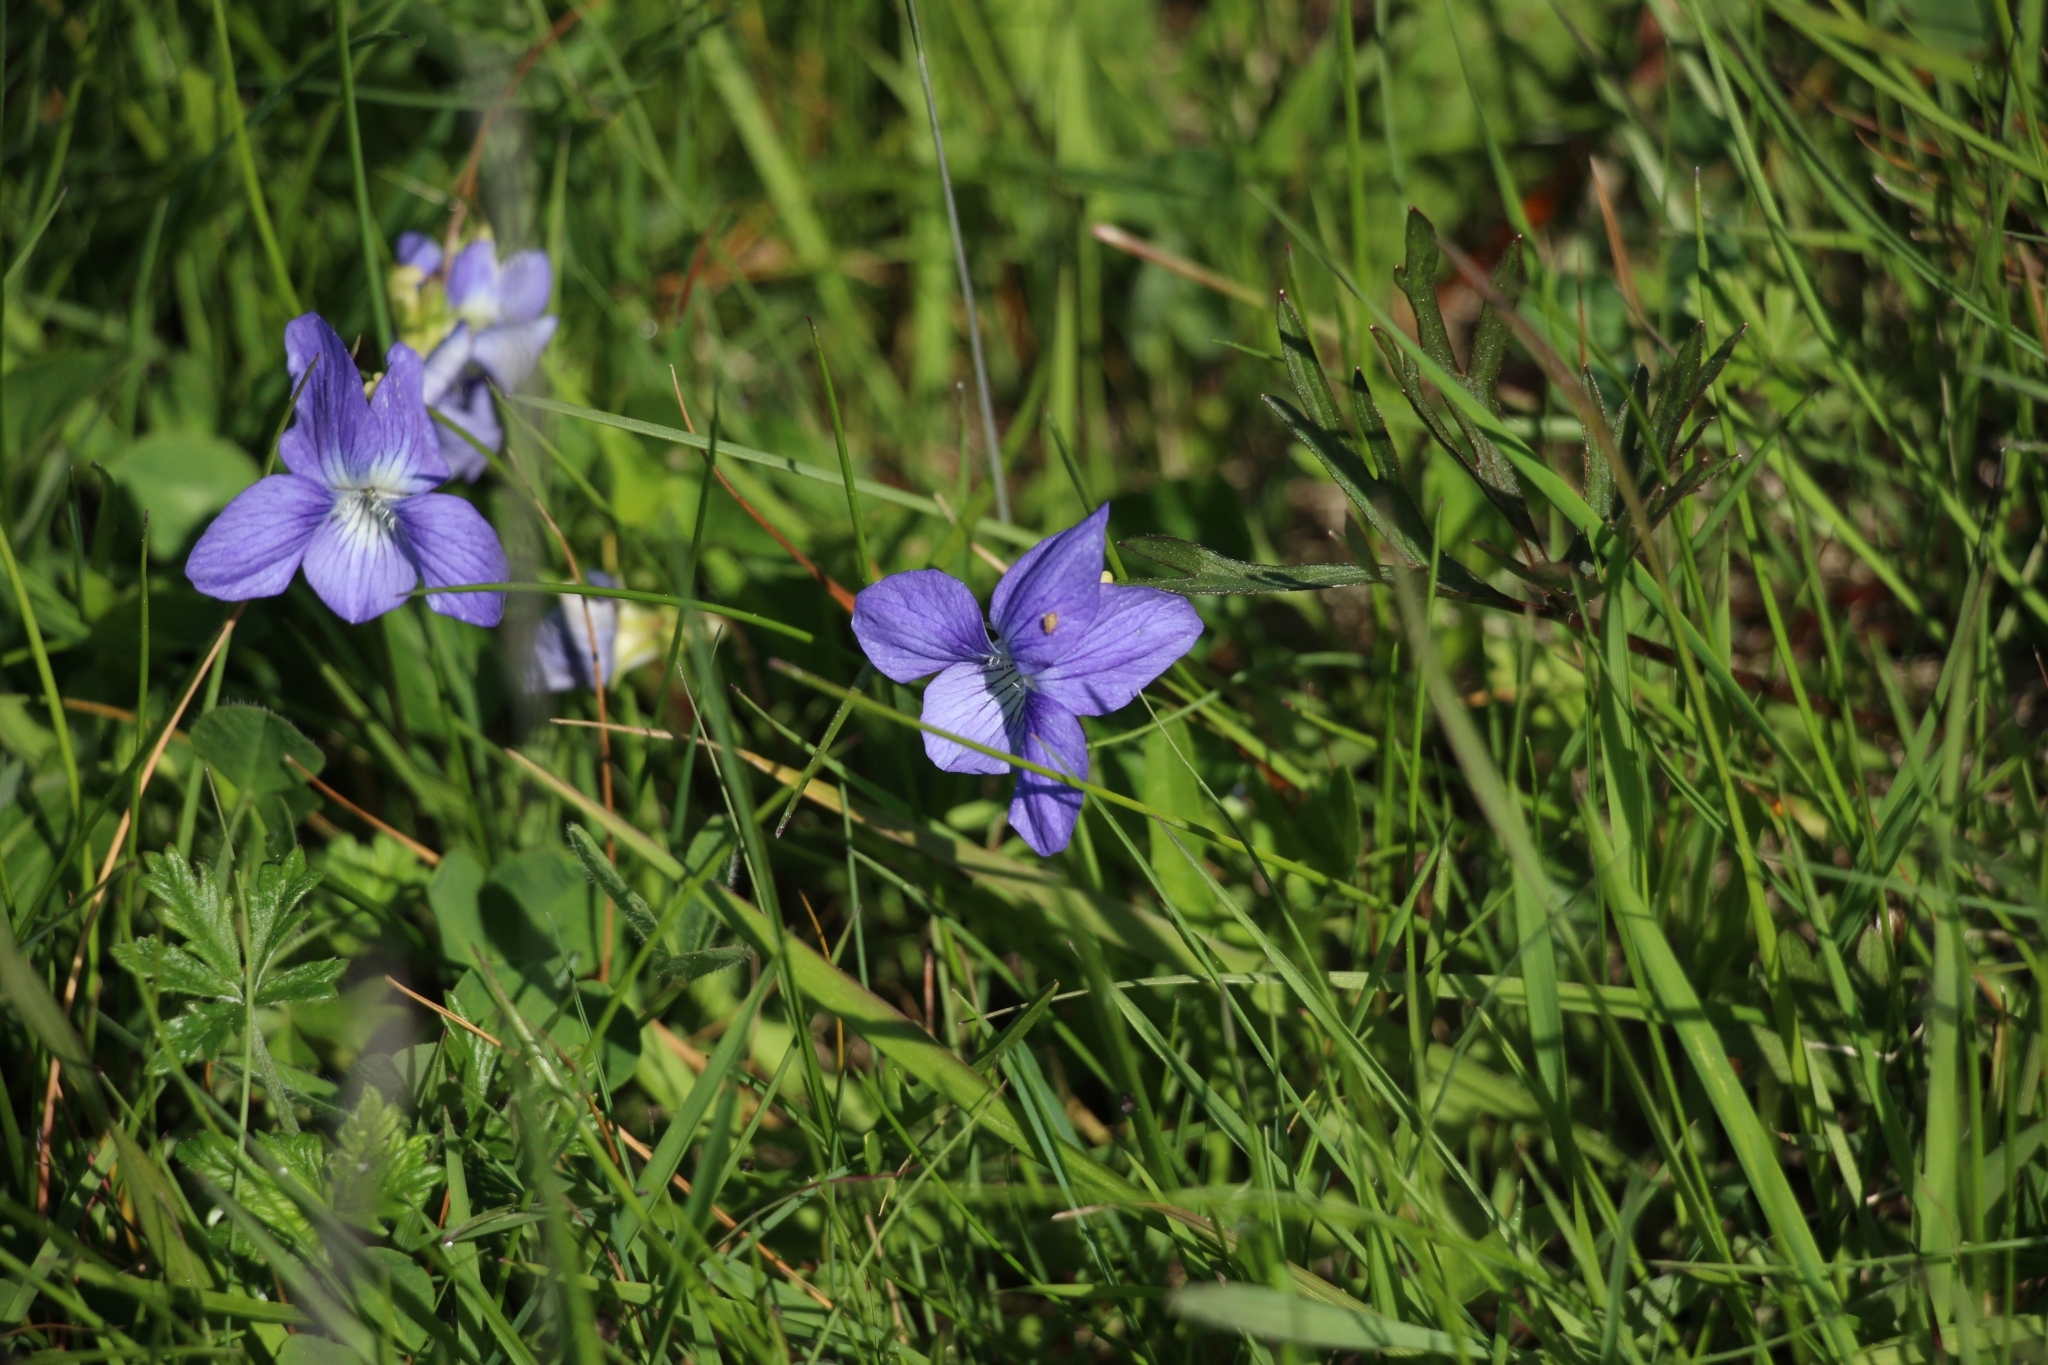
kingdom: Plantae
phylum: Tracheophyta
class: Magnoliopsida
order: Malpighiales
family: Violaceae
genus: Viola
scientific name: Viola canina
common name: Heath dog-violet
